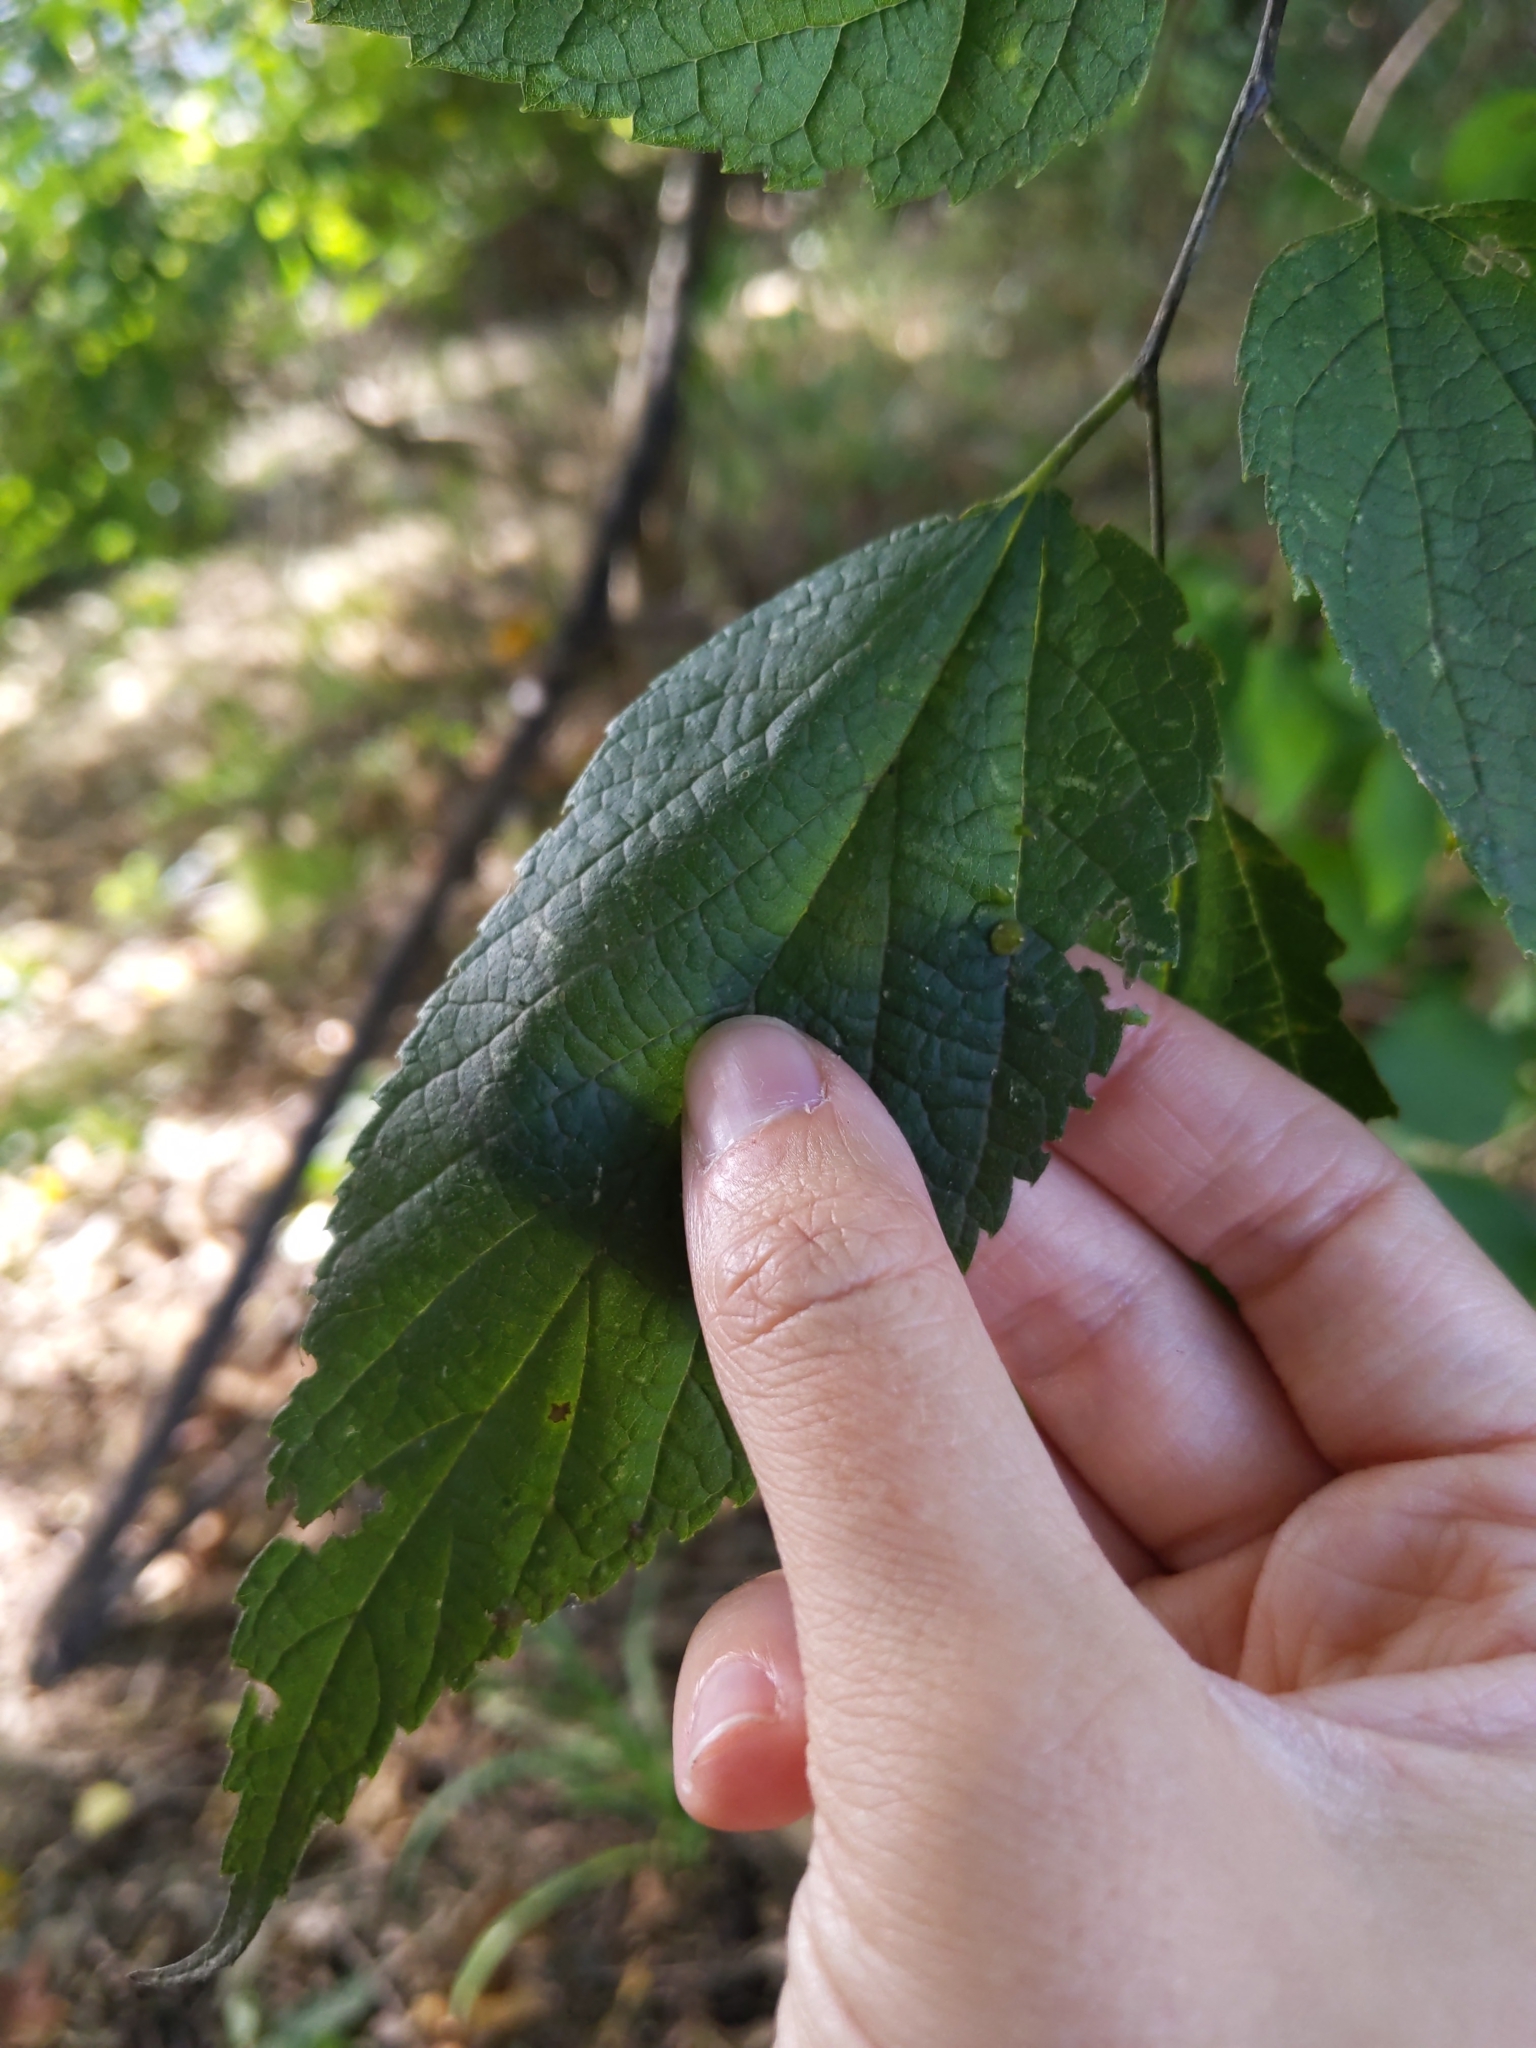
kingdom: Animalia
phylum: Arthropoda
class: Insecta
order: Diptera
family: Cecidomyiidae
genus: Celticecis
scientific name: Celticecis spiniformis
